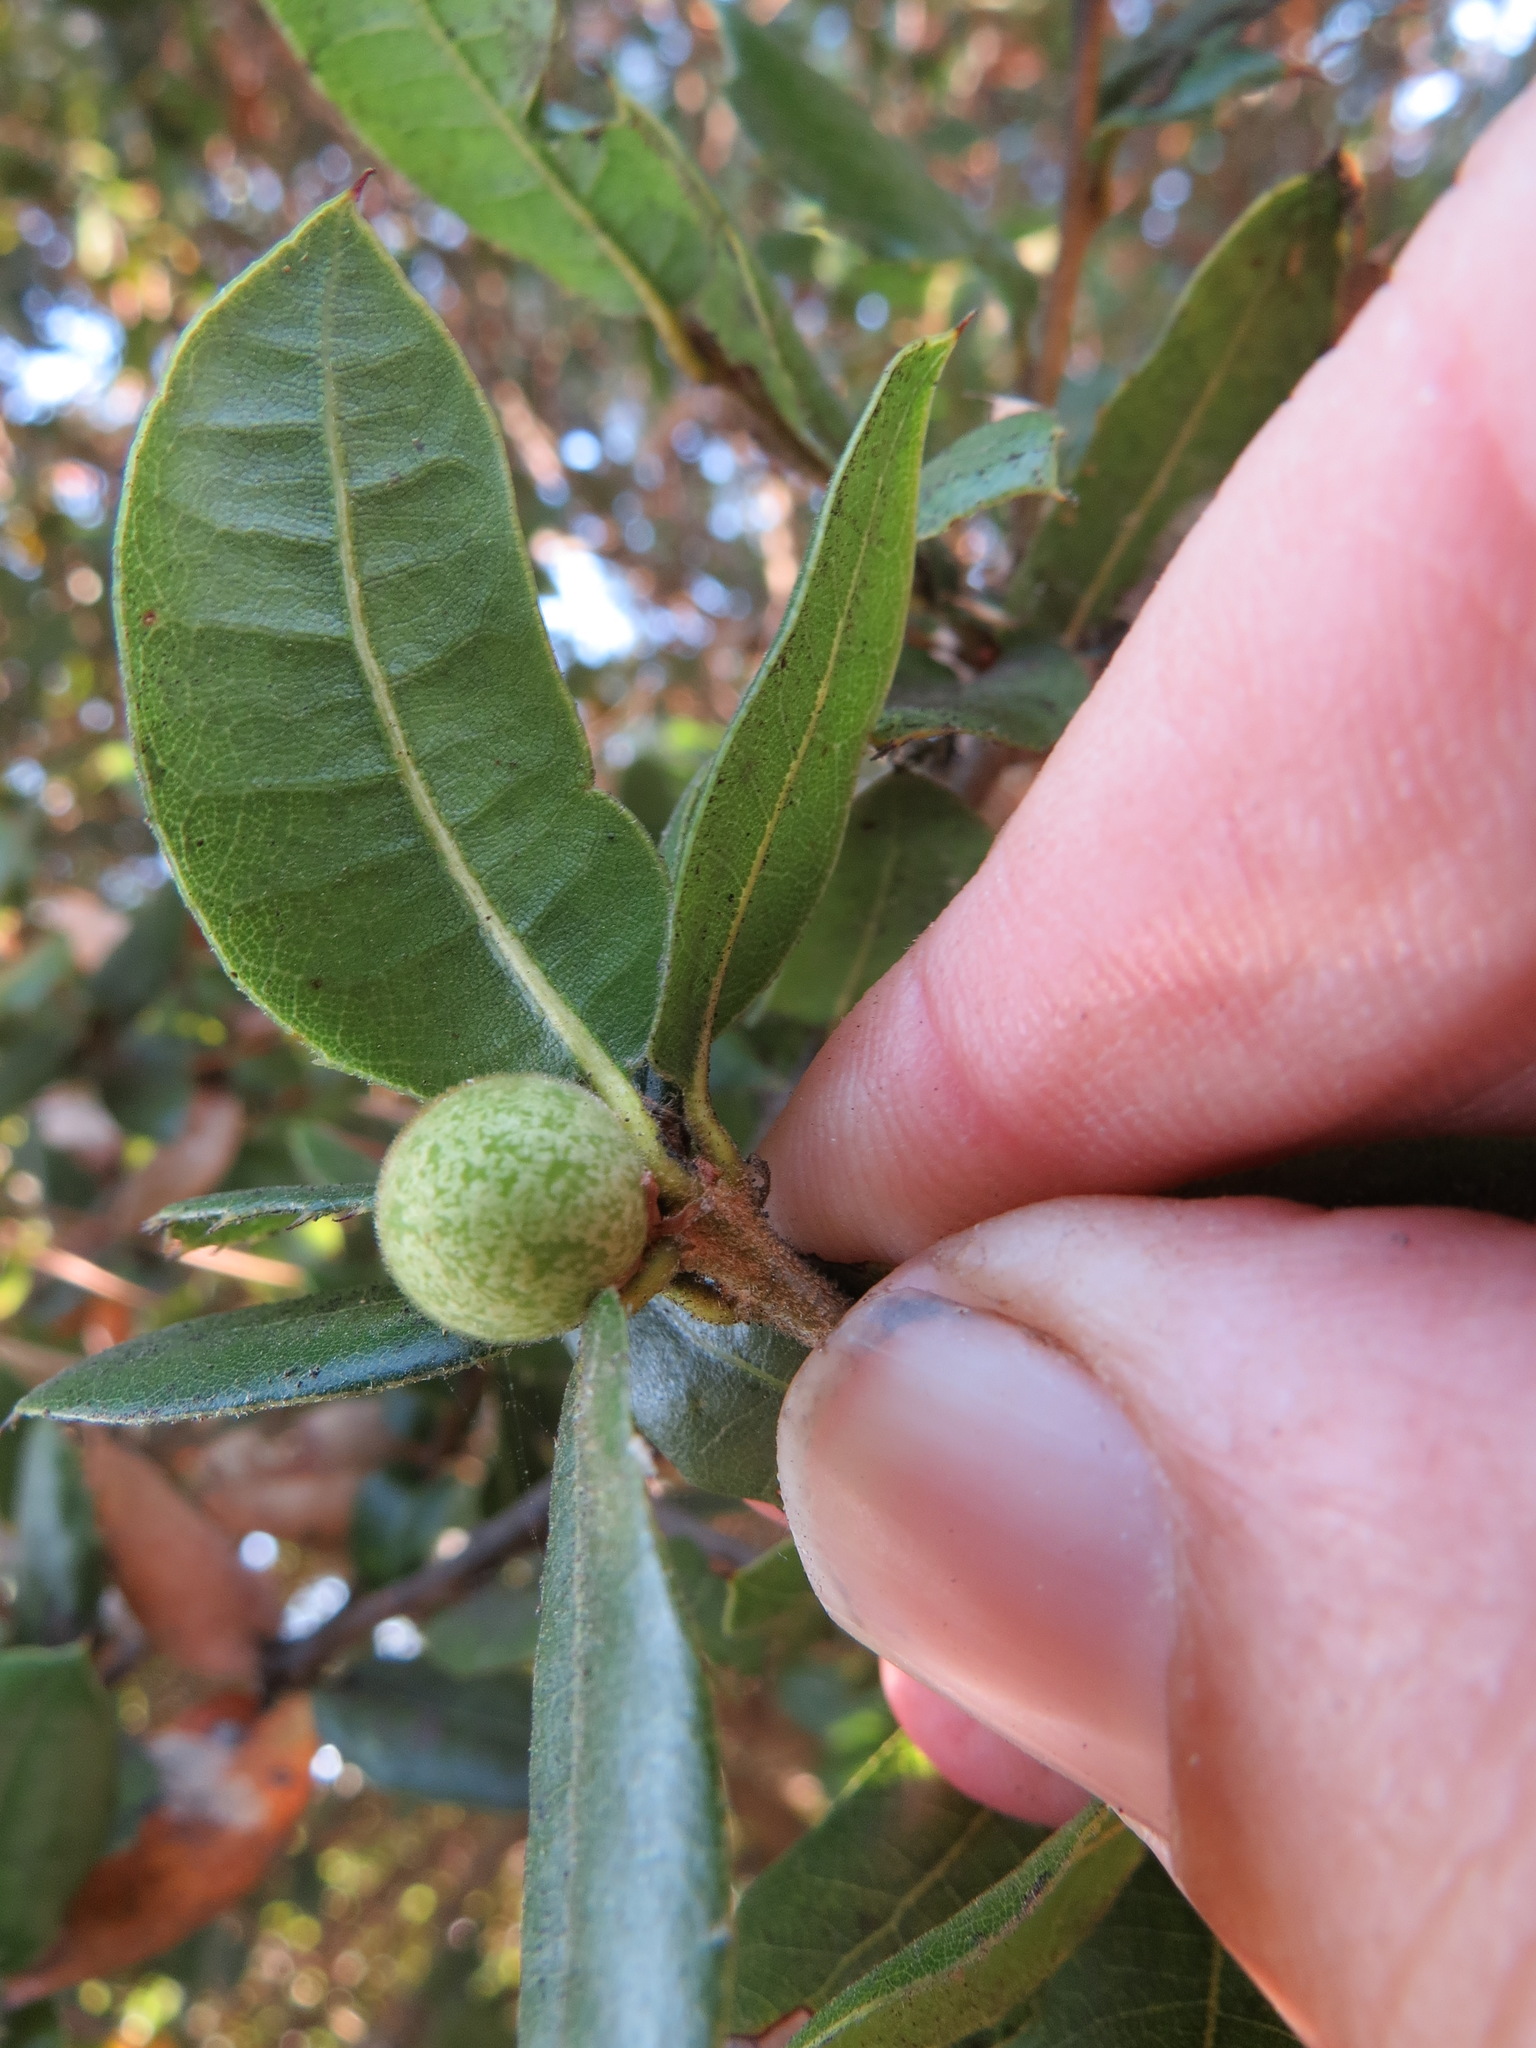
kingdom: Animalia
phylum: Arthropoda
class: Insecta
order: Hymenoptera
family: Cynipidae
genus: Callirhytis
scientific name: Callirhytis
